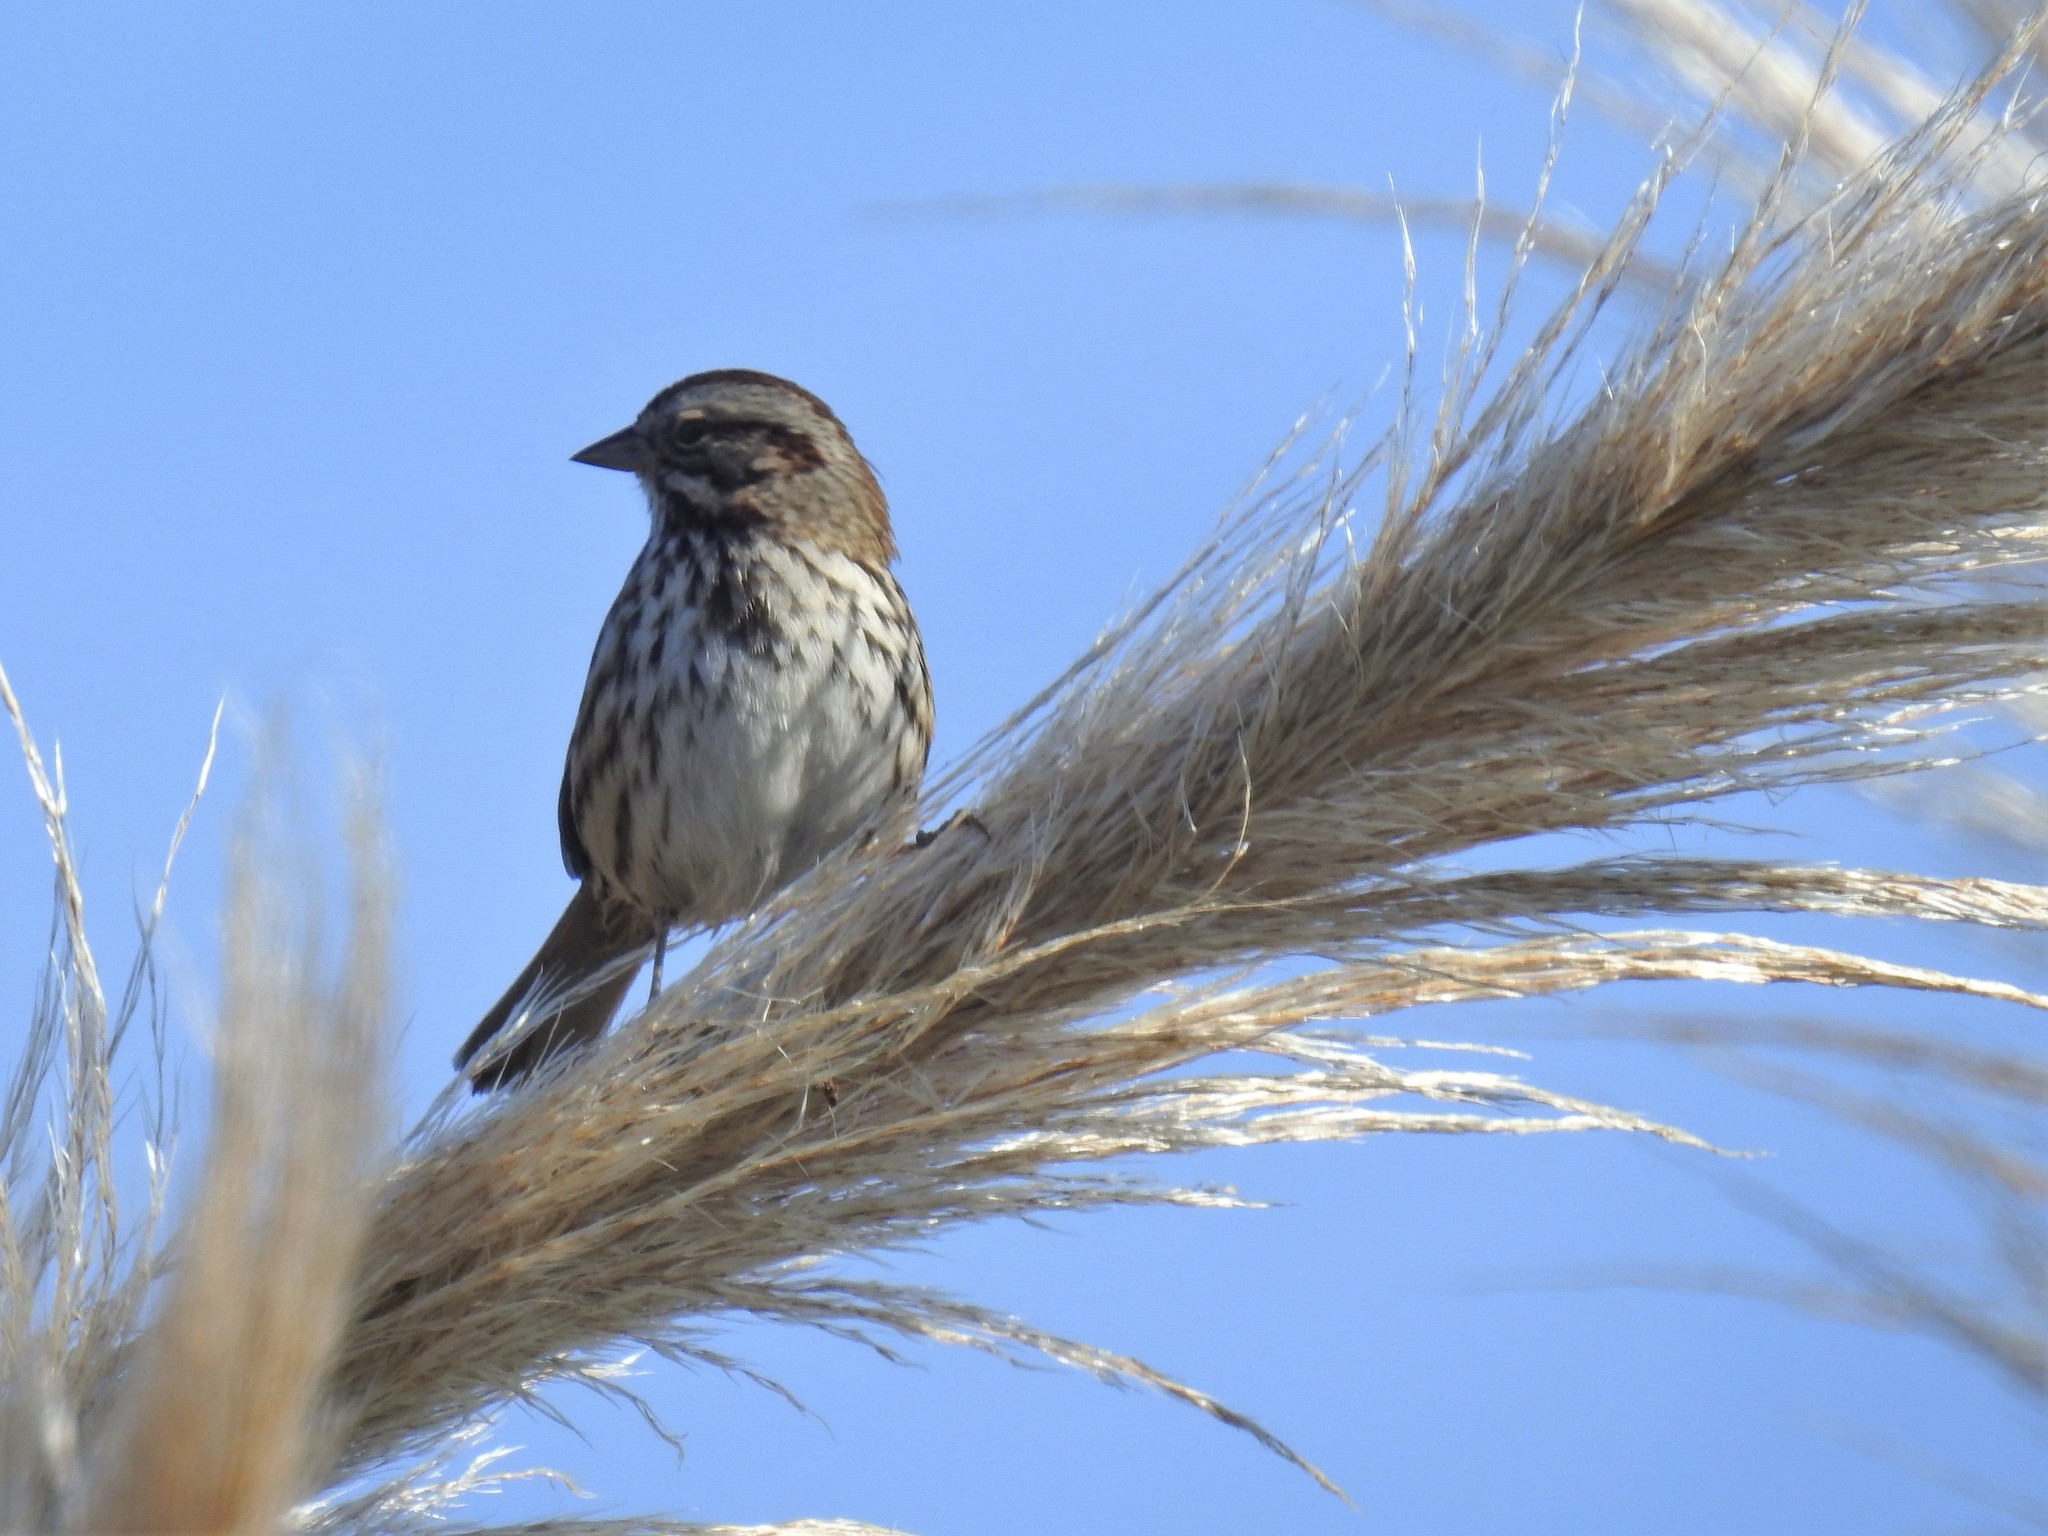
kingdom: Animalia
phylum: Chordata
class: Aves
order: Passeriformes
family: Passerellidae
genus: Melospiza
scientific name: Melospiza melodia
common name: Song sparrow
